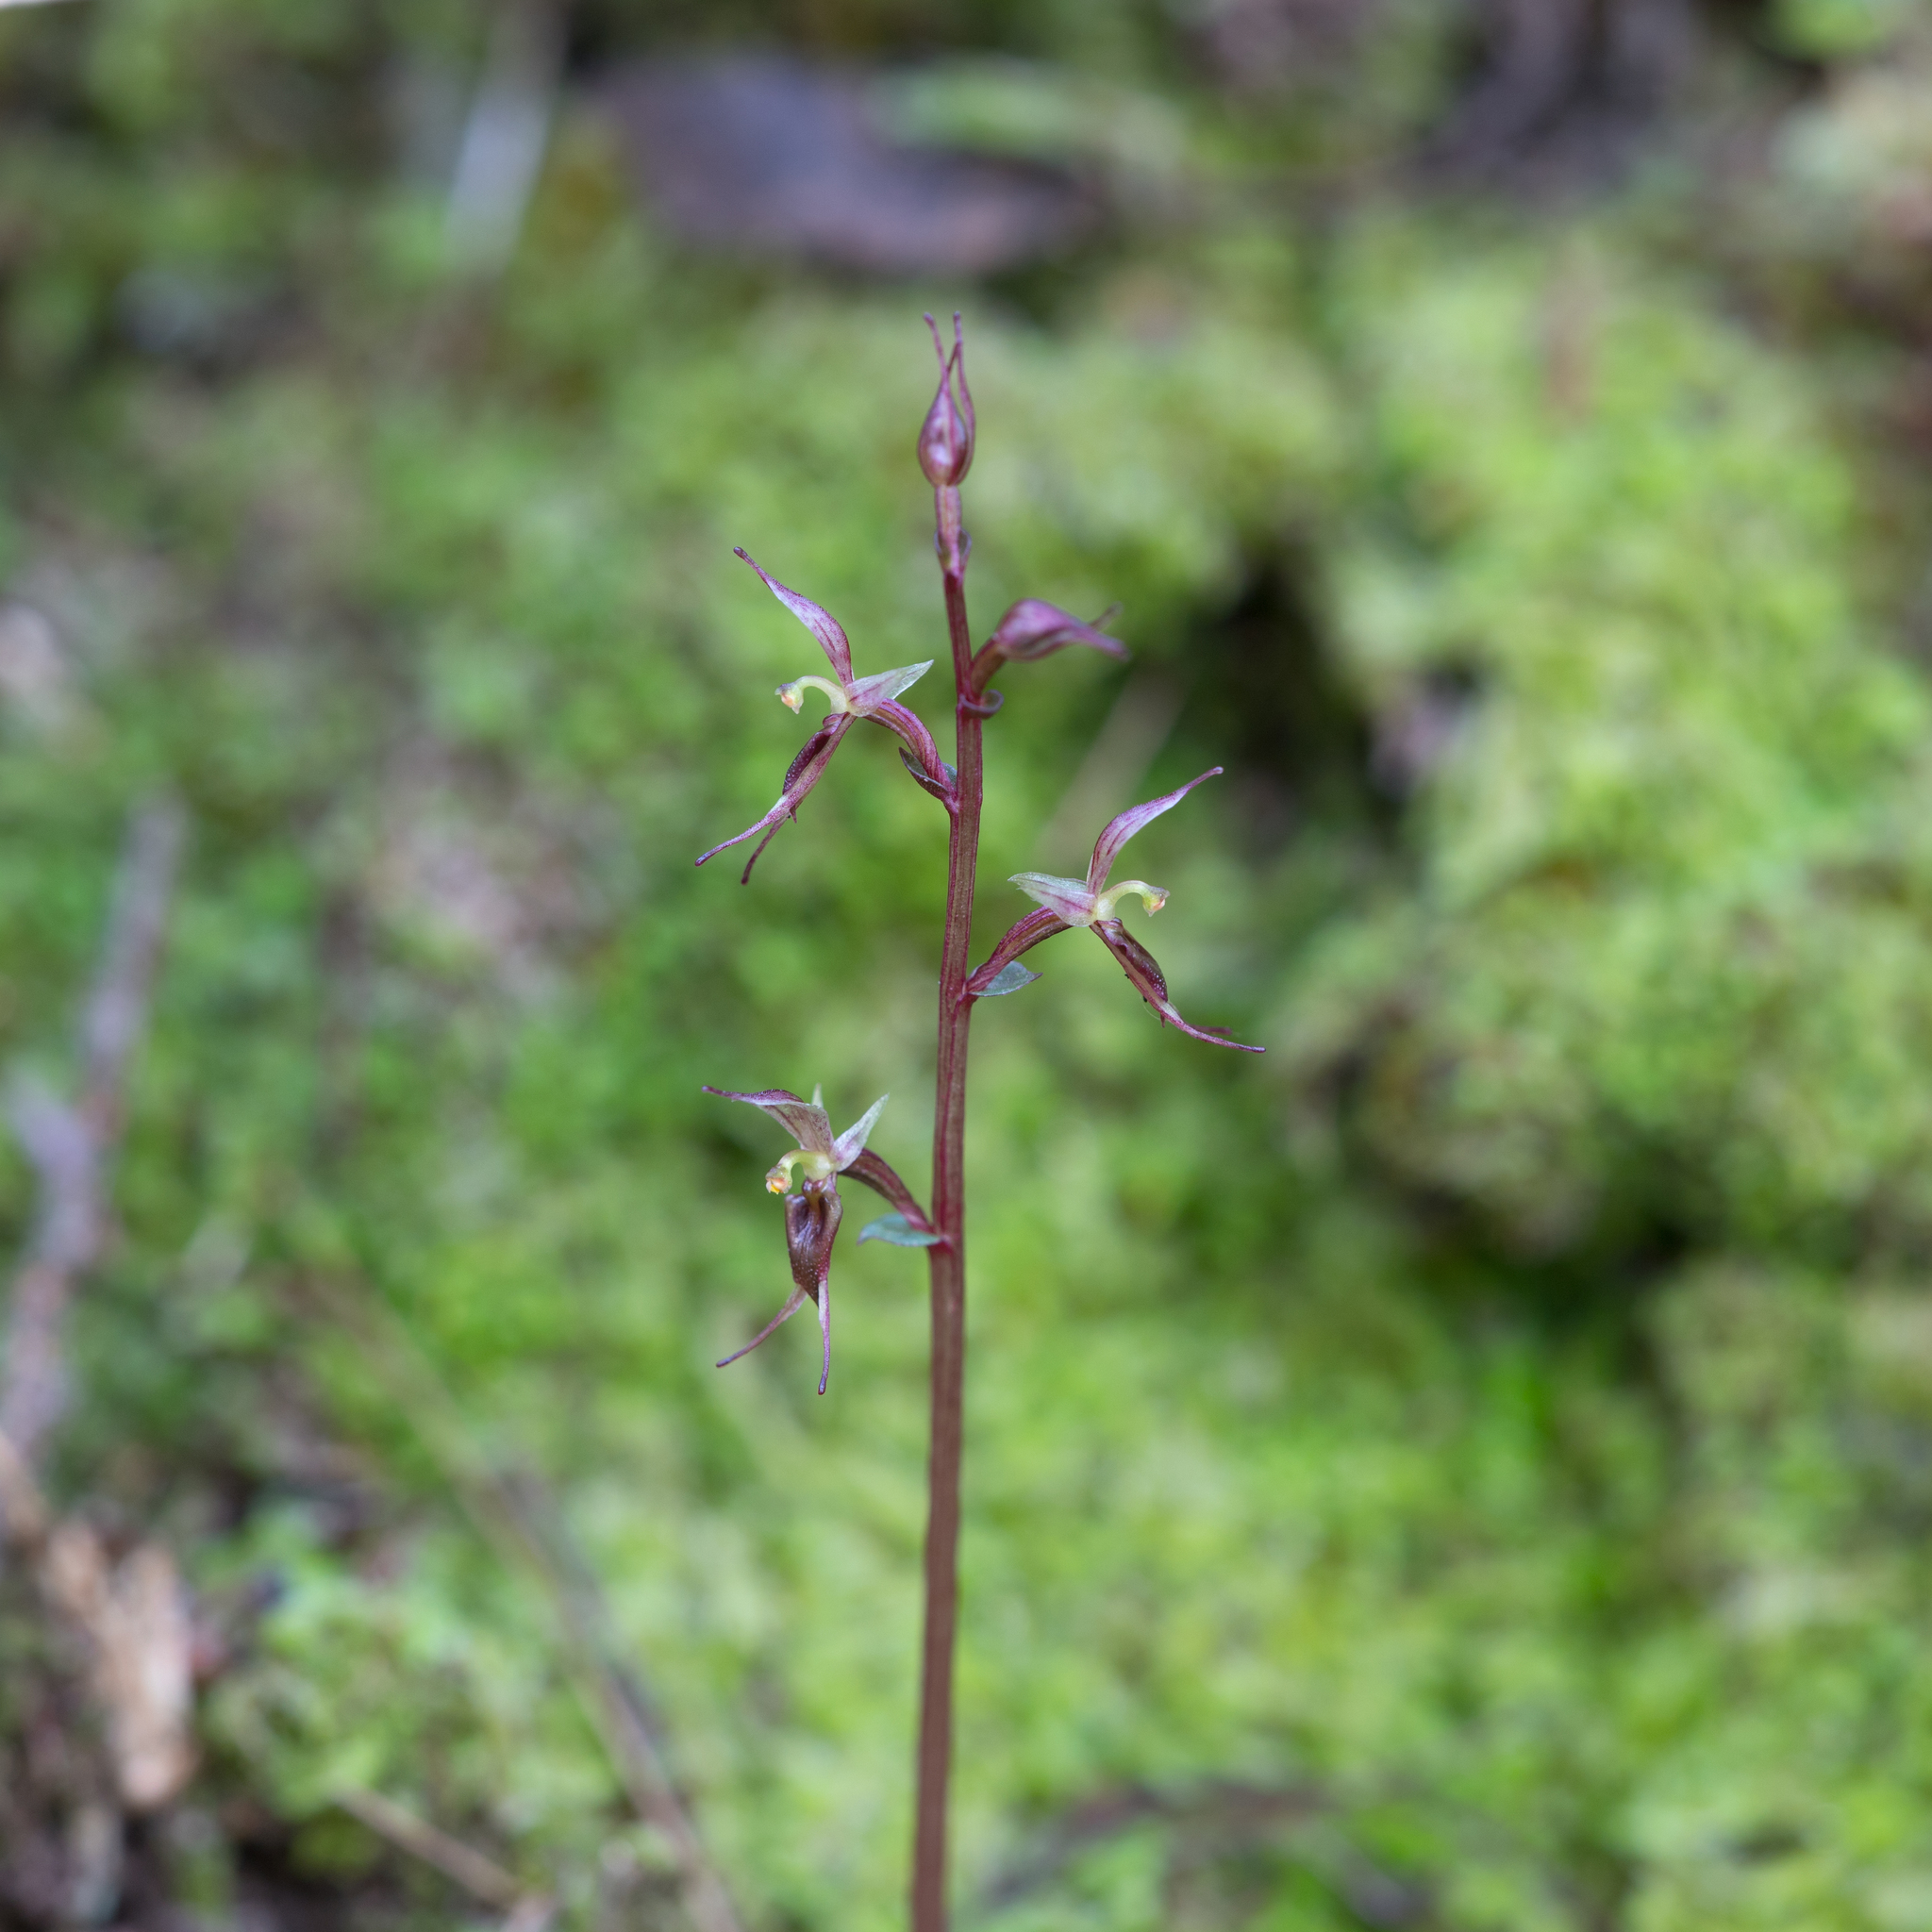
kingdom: Plantae
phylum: Tracheophyta
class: Liliopsida
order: Asparagales
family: Orchidaceae
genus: Acianthus
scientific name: Acianthus pusillus
